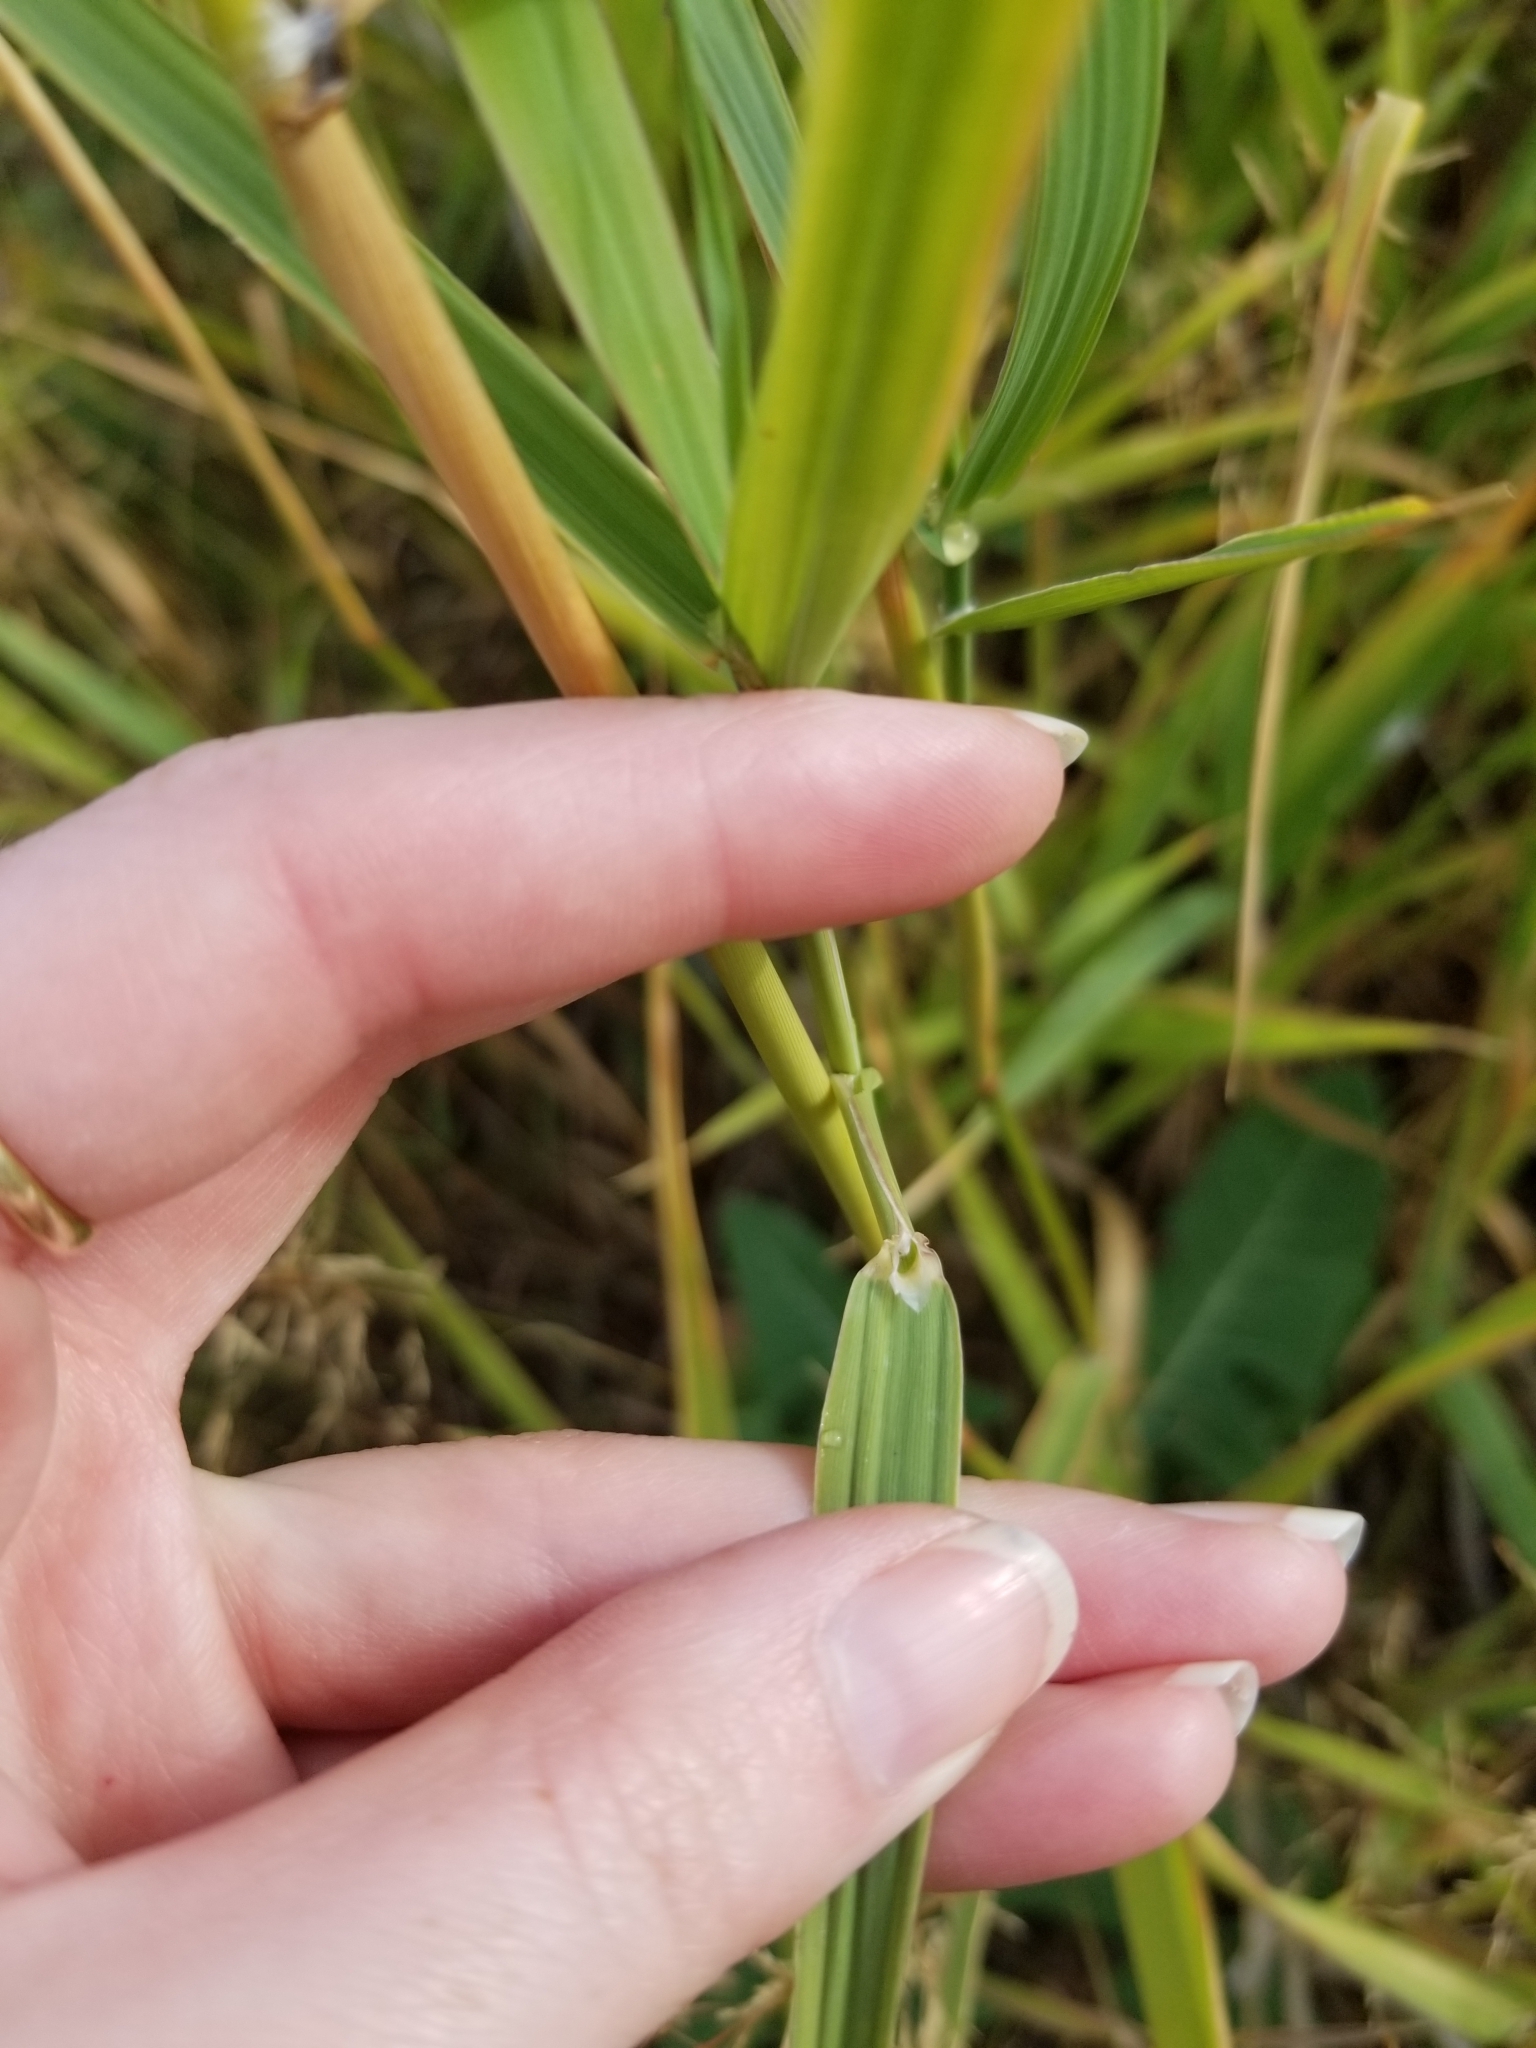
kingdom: Plantae
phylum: Tracheophyta
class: Liliopsida
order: Poales
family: Poaceae
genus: Phalaris
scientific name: Phalaris arundinacea
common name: Reed canary-grass
